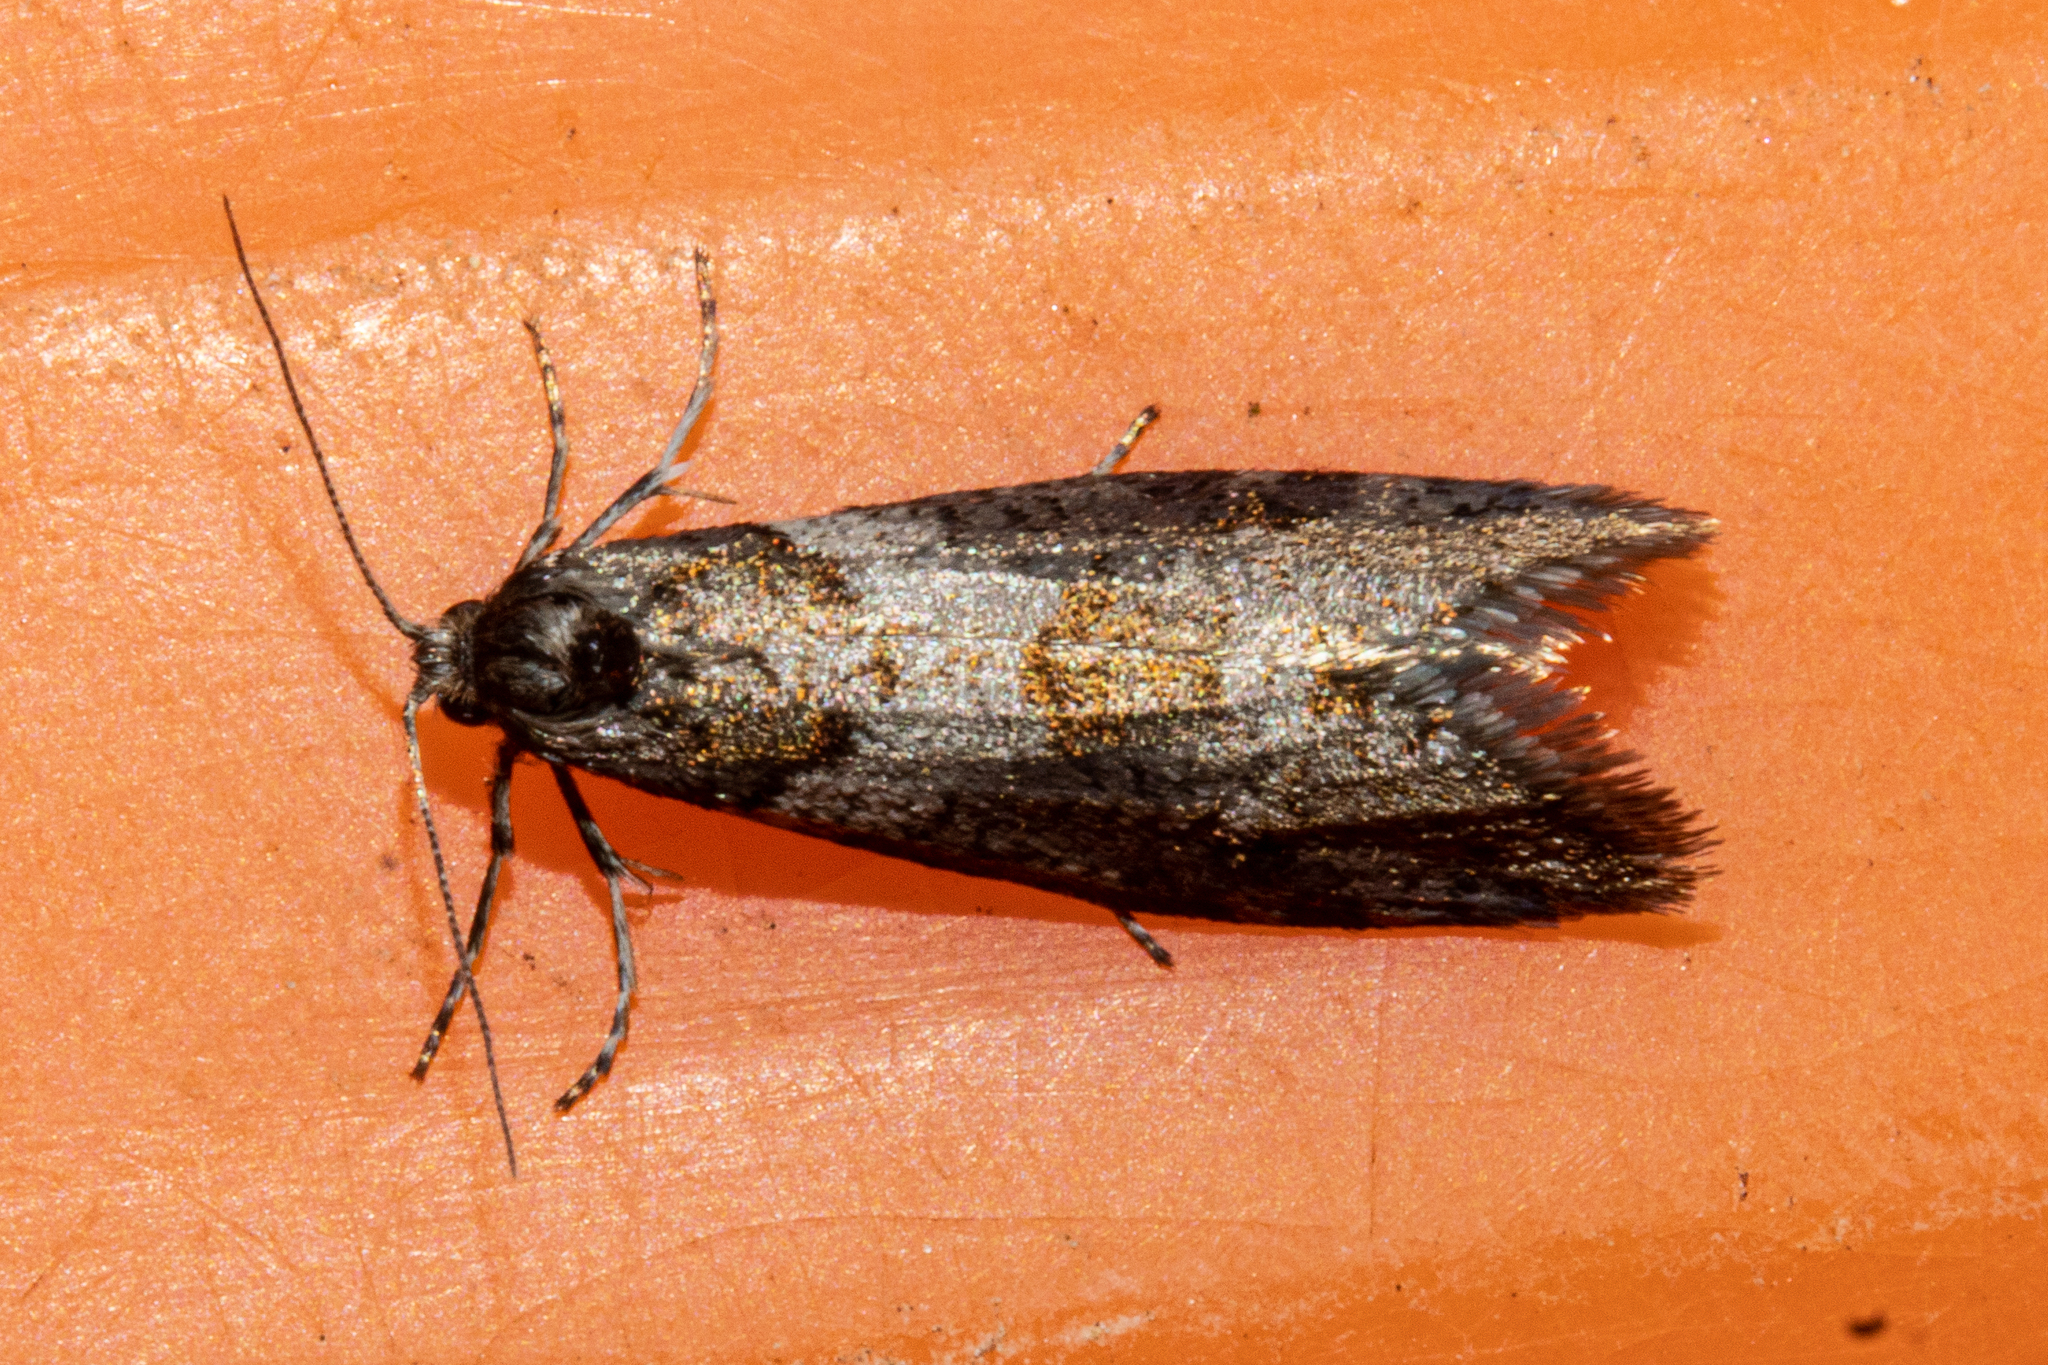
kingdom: Animalia
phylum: Arthropoda
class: Insecta
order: Lepidoptera
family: Psychidae
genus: Lepidoscia
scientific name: Lepidoscia heliochares
